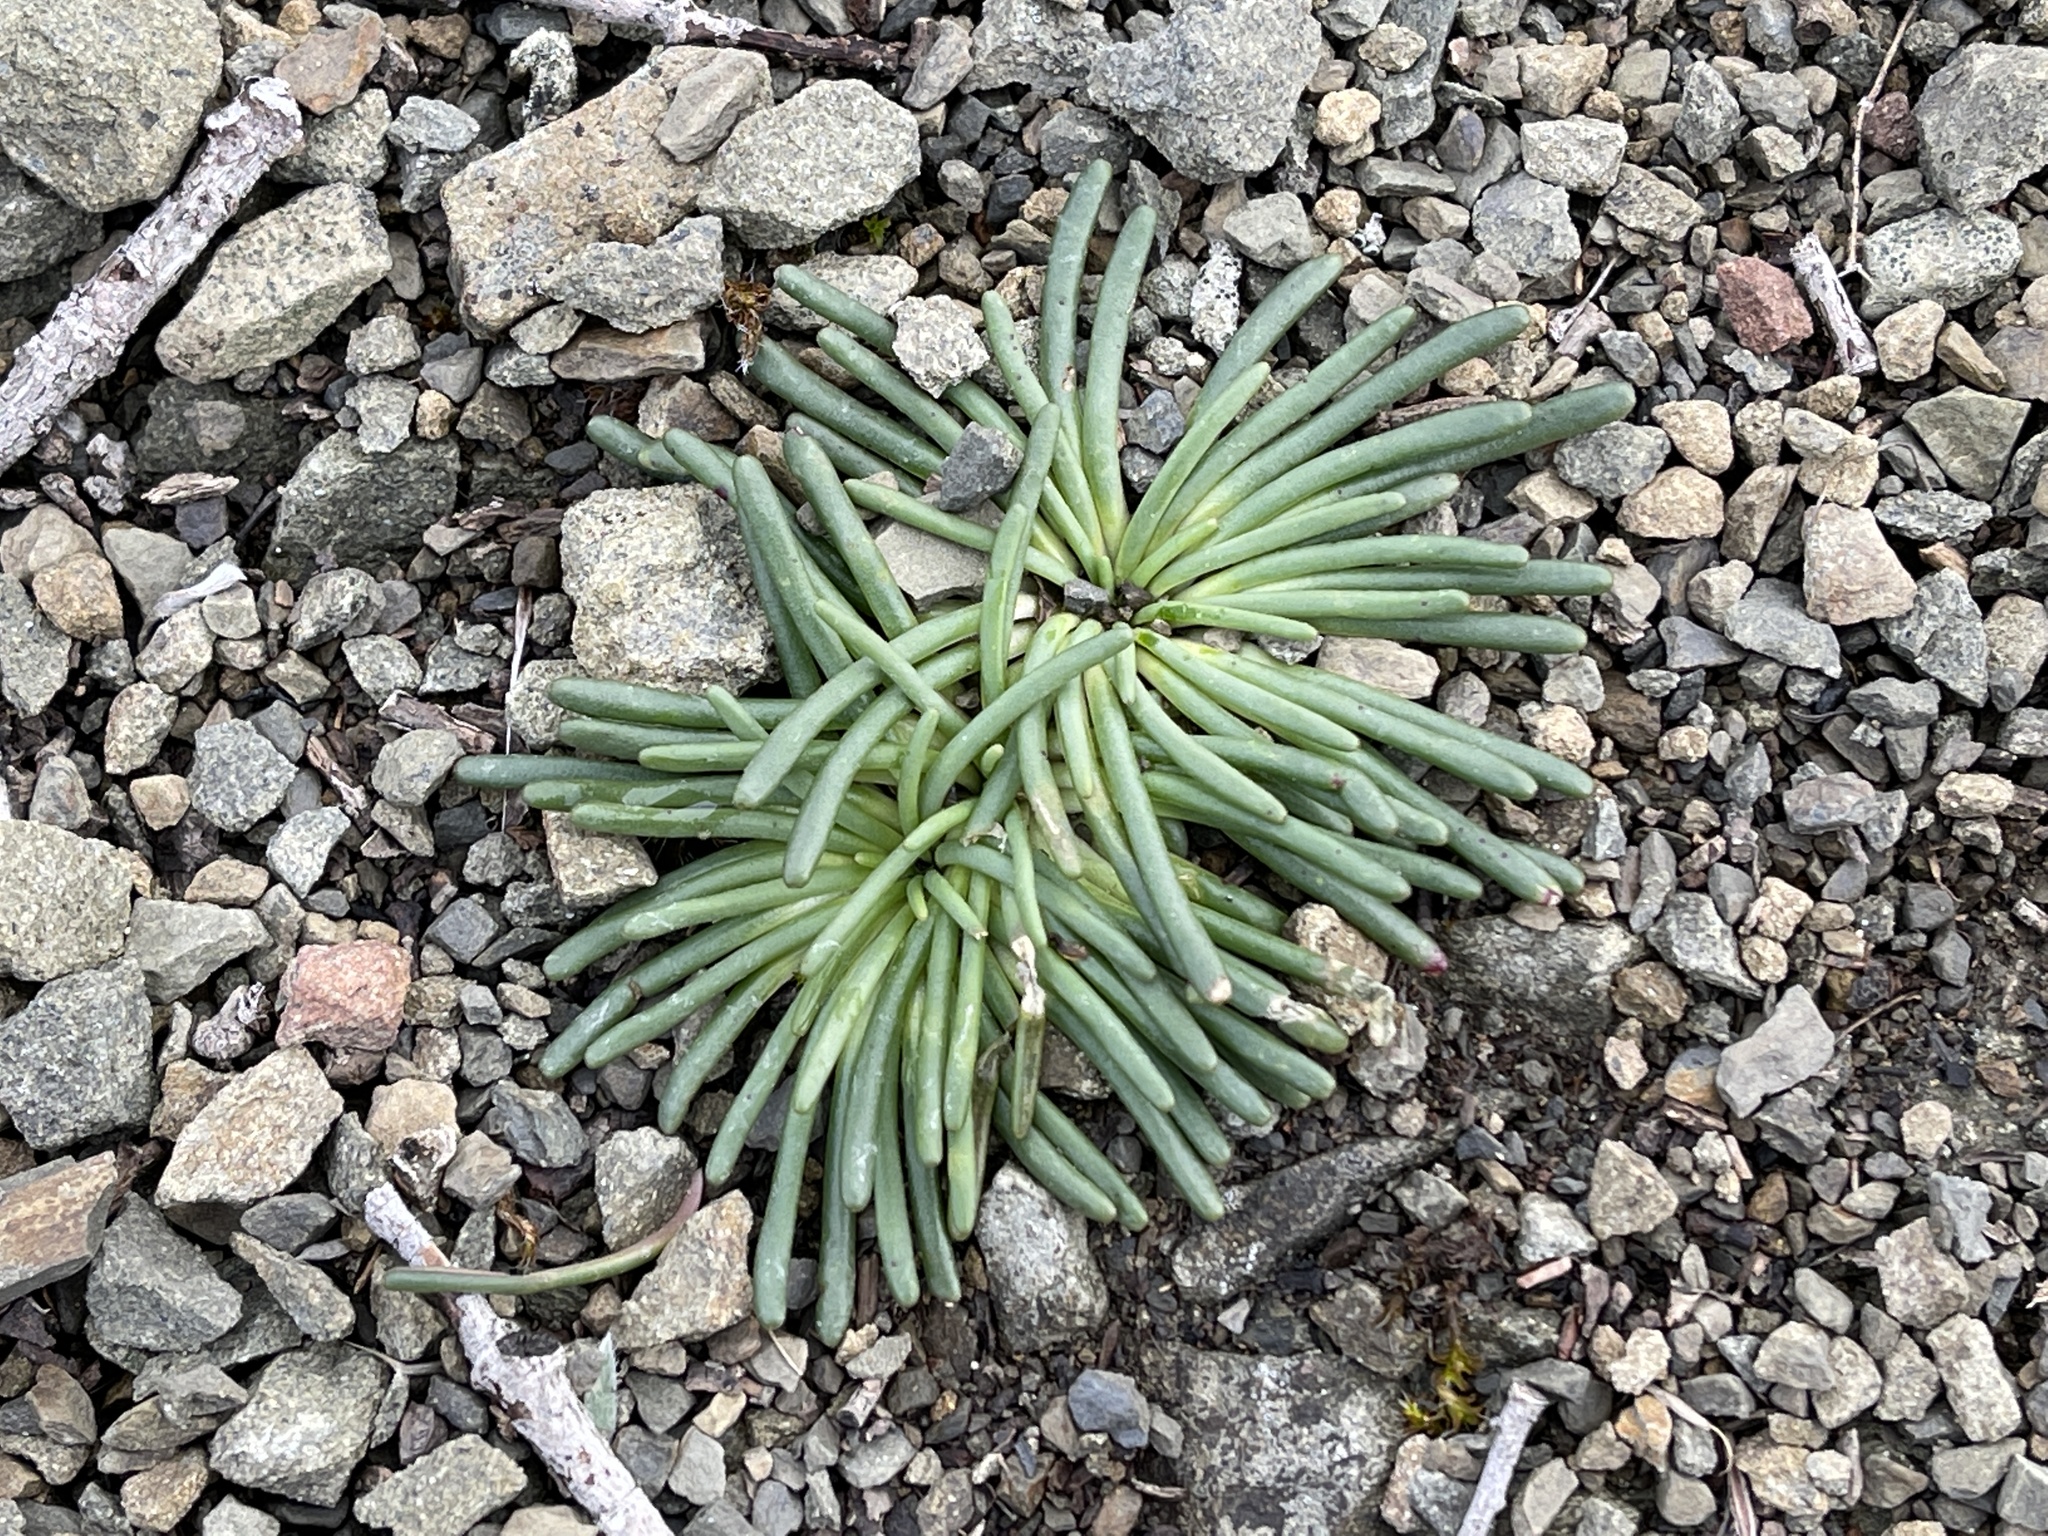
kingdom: Plantae
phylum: Tracheophyta
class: Magnoliopsida
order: Caryophyllales
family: Montiaceae
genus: Lewisia
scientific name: Lewisia rediviva
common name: Bitter-root
